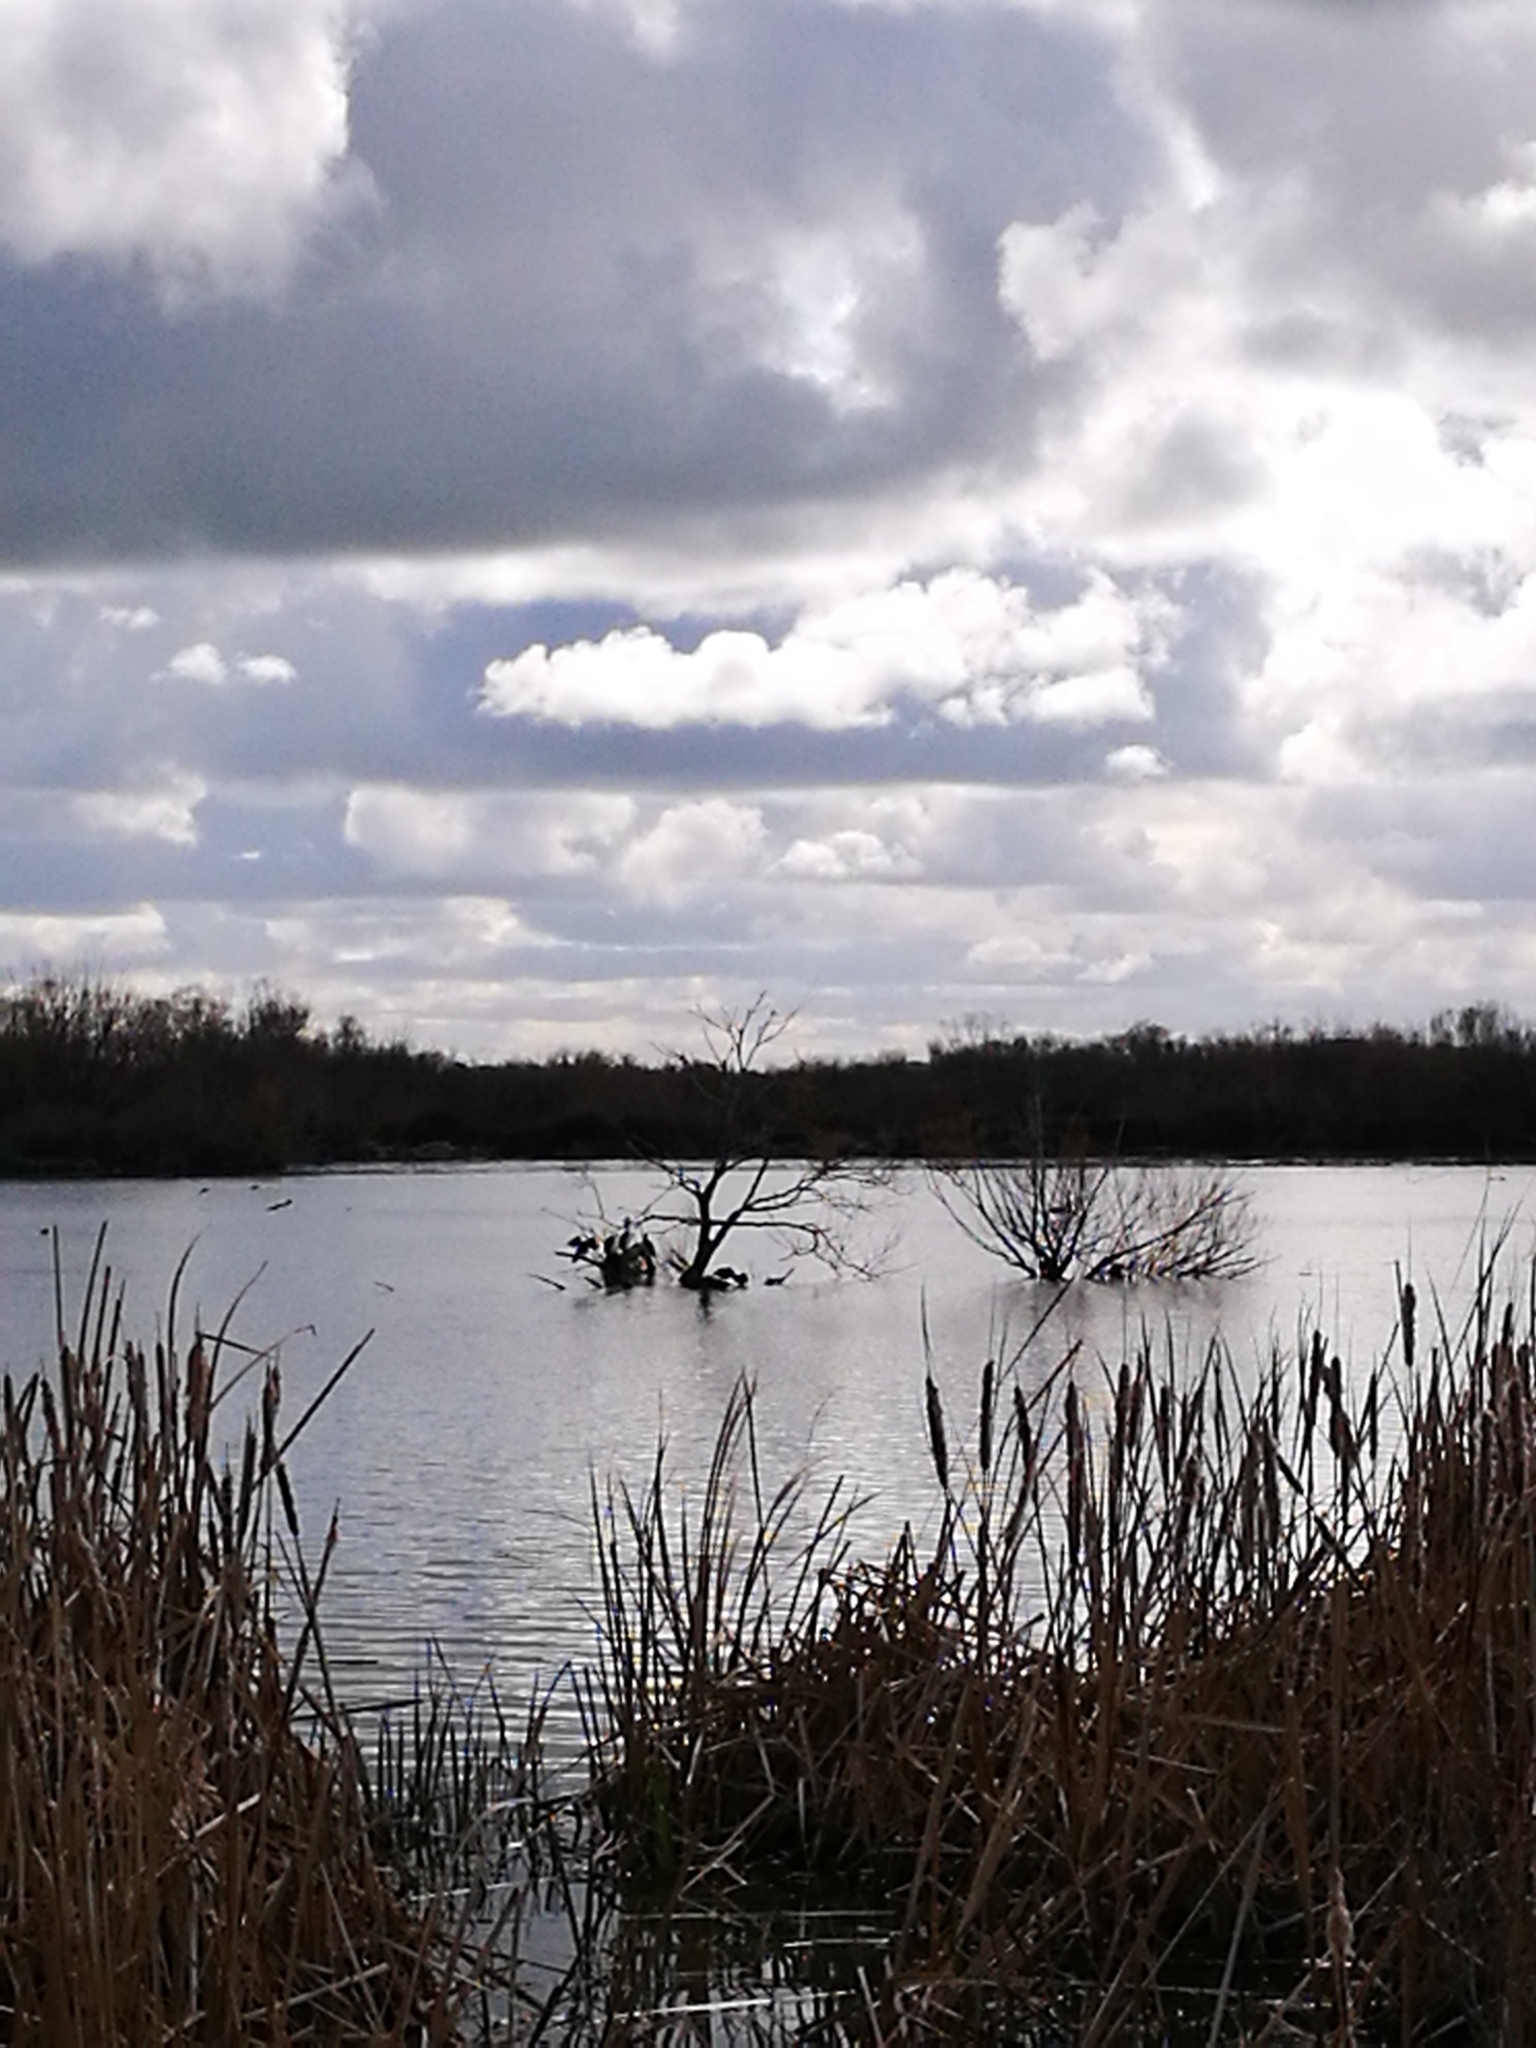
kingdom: Animalia
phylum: Chordata
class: Aves
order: Suliformes
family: Phalacrocoracidae
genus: Phalacrocorax
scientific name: Phalacrocorax varius
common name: Pied cormorant
